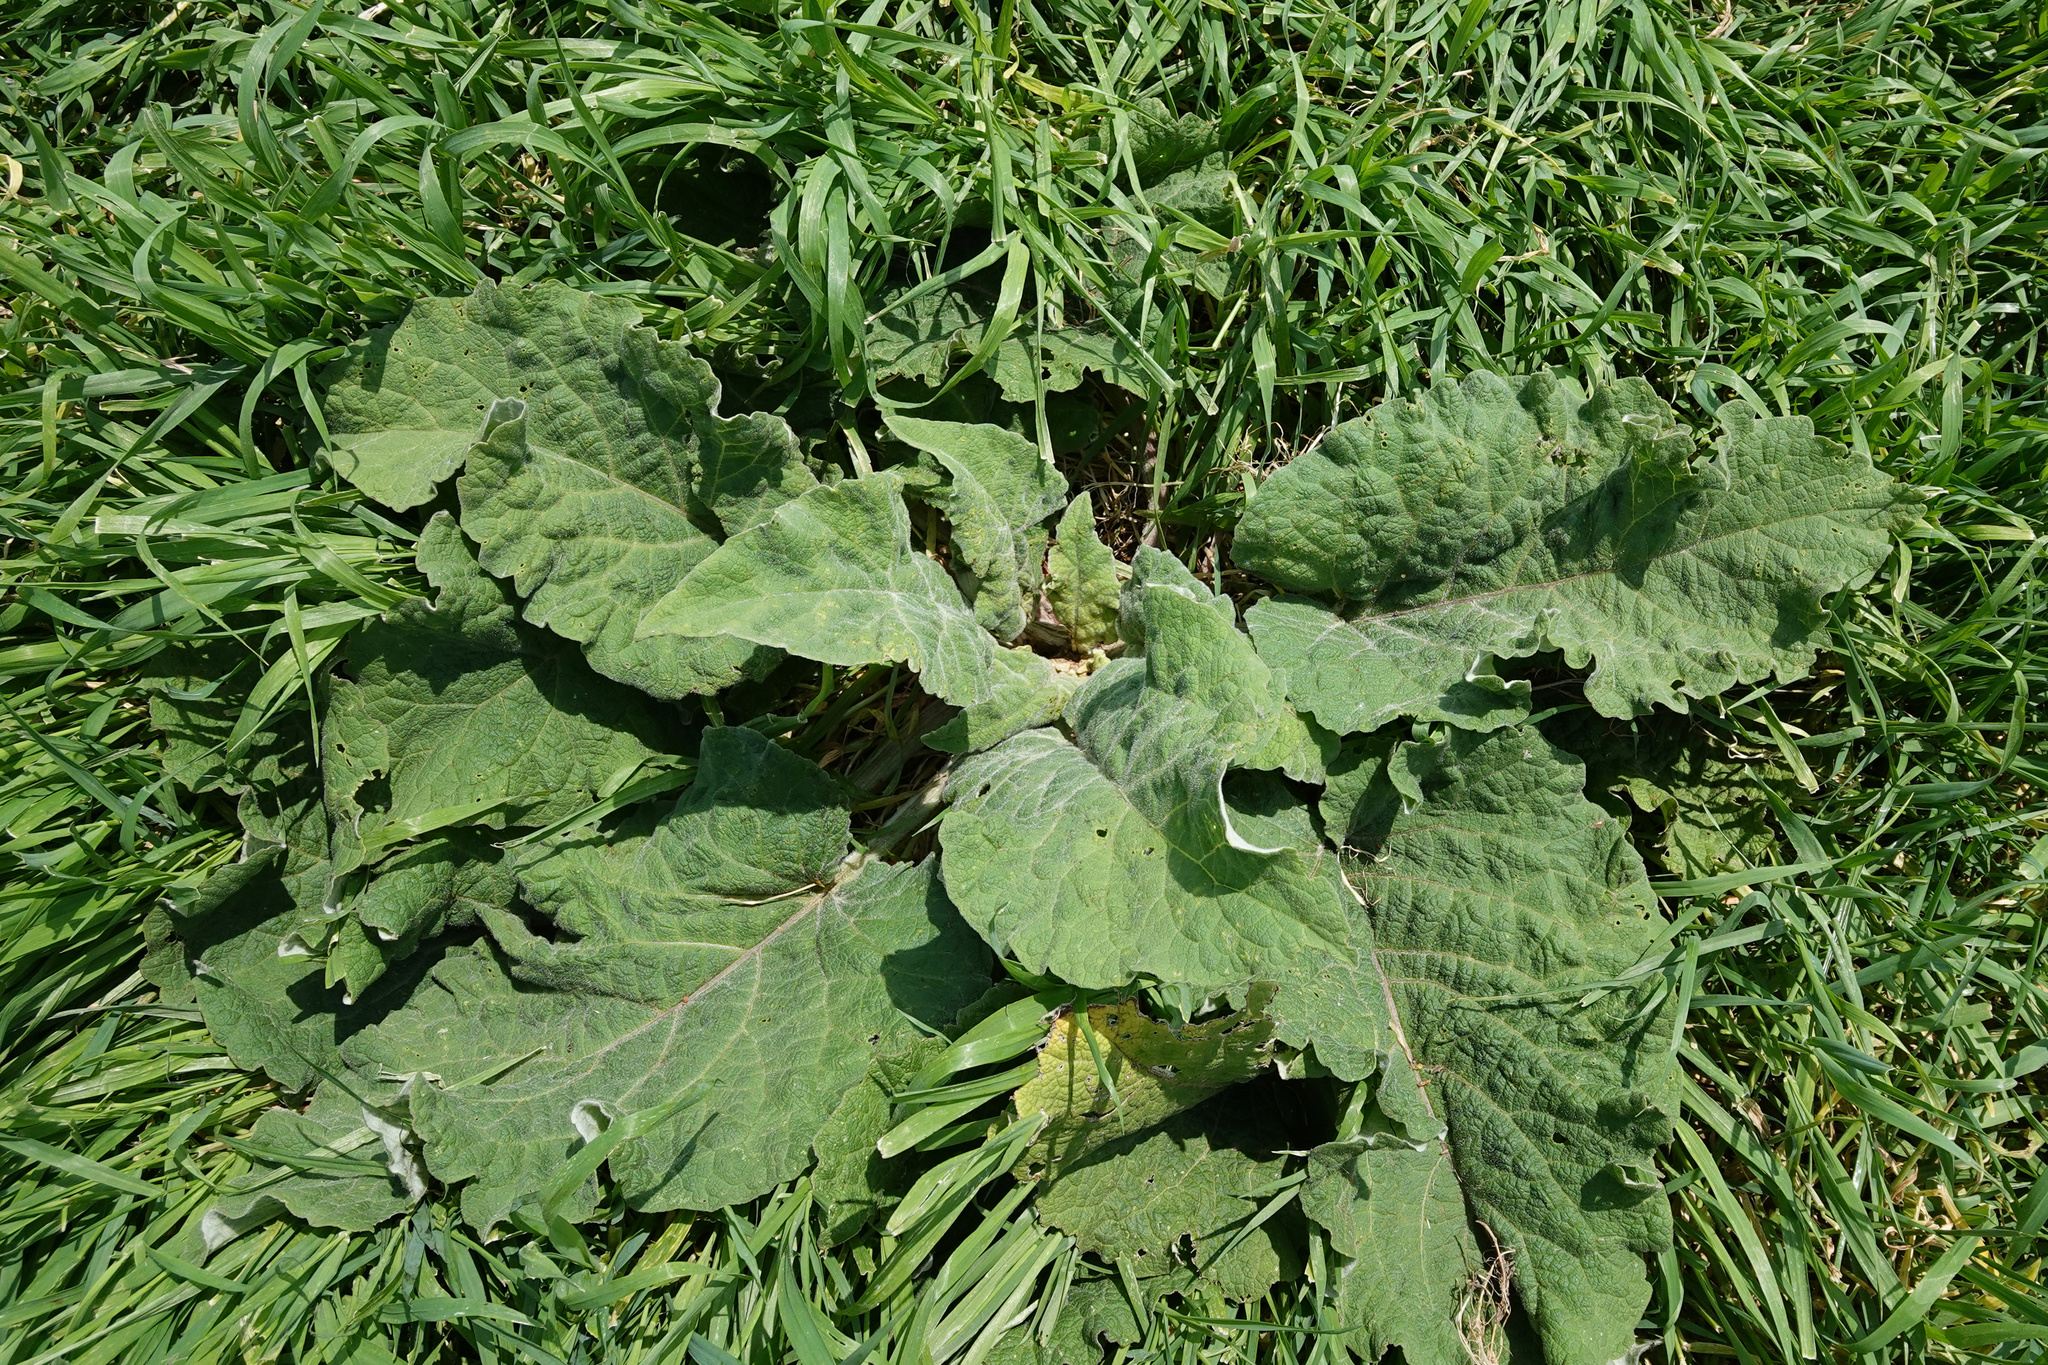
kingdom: Plantae
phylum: Tracheophyta
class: Magnoliopsida
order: Asterales
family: Asteraceae
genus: Arctium
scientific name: Arctium minus
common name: Lesser burdock
